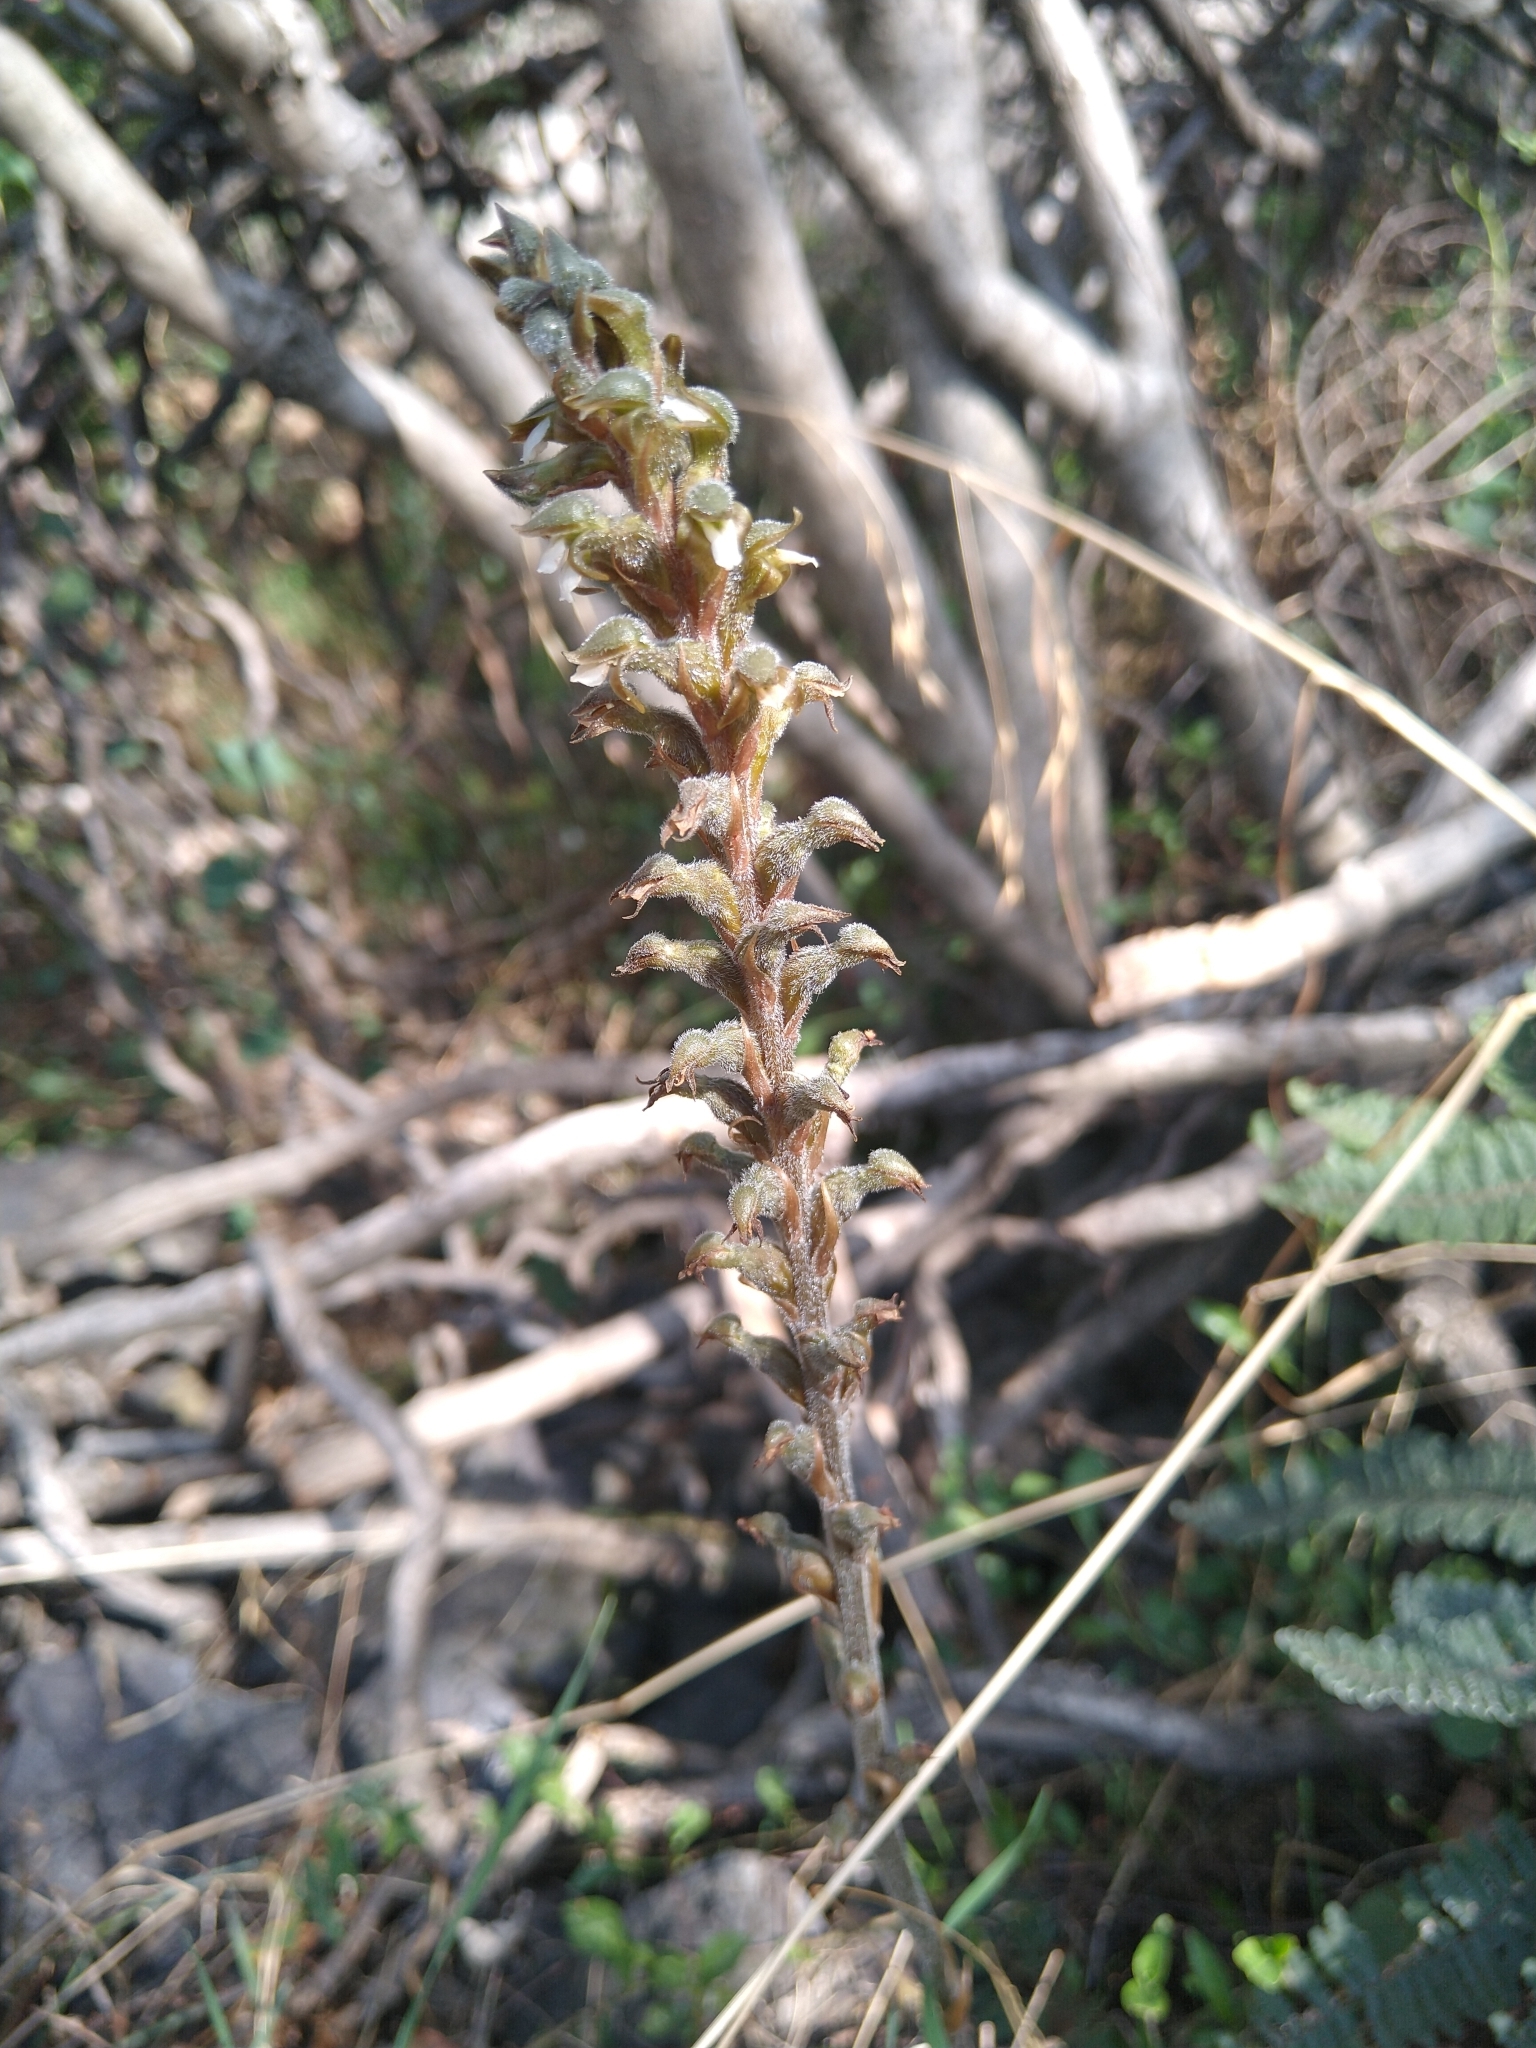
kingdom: Plantae
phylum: Tracheophyta
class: Liliopsida
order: Asparagales
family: Orchidaceae
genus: Sarcoglottis
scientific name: Sarcoglottis schaffneri
